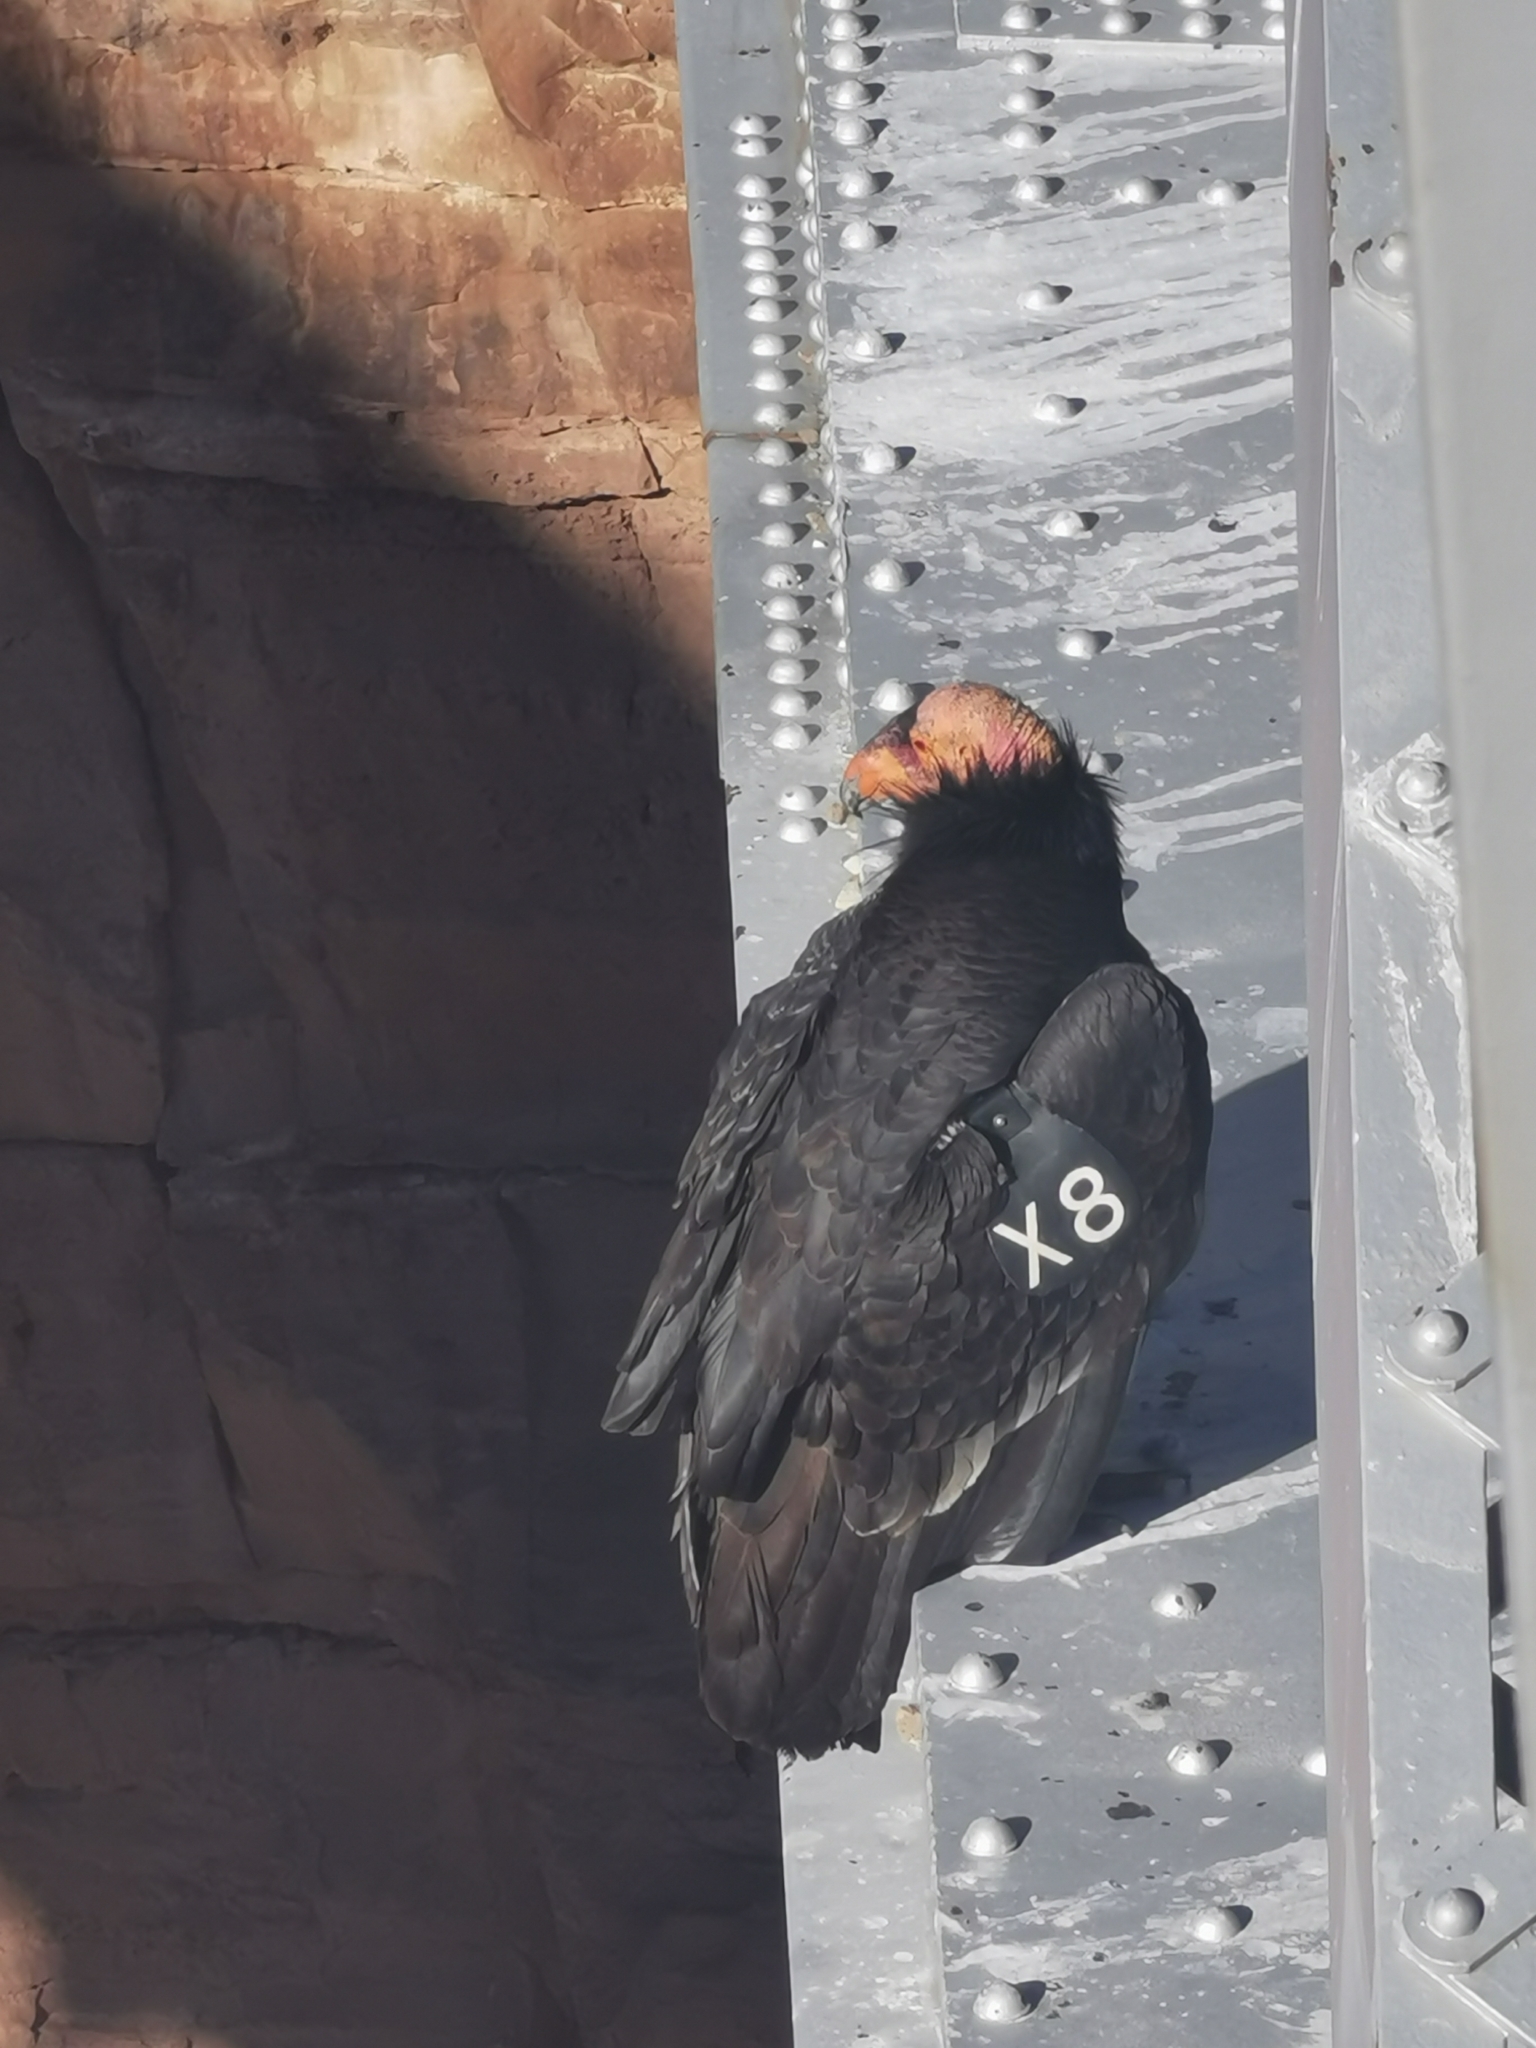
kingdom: Animalia
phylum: Chordata
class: Aves
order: Accipitriformes
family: Cathartidae
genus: Gymnogyps
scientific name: Gymnogyps californianus
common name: California condor
